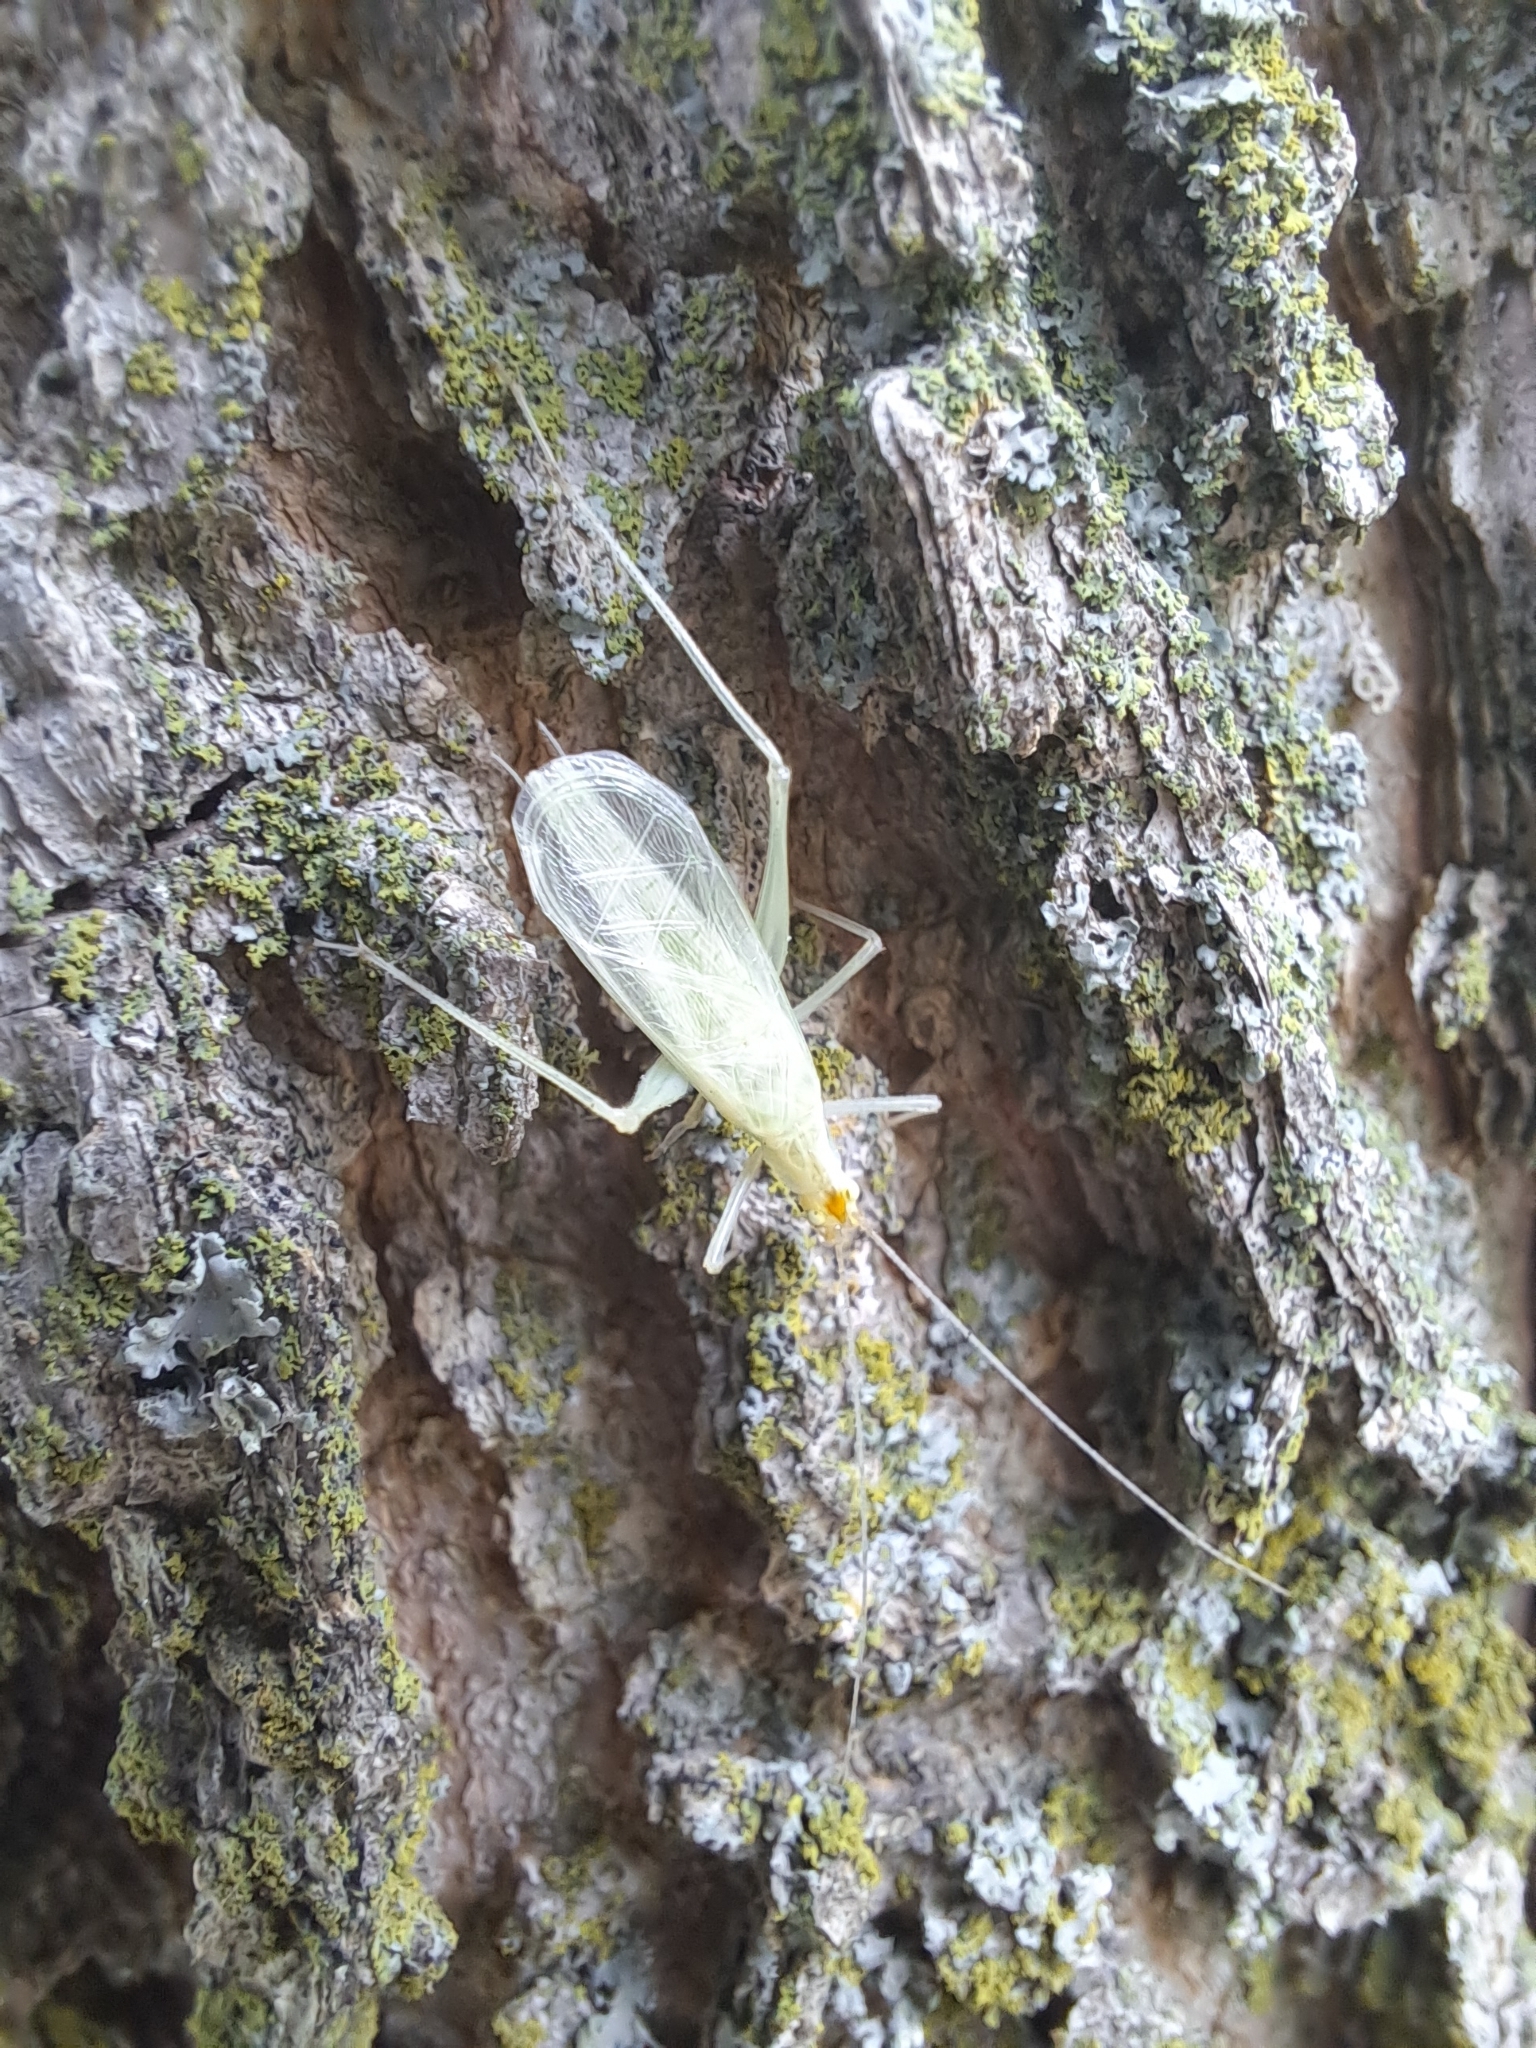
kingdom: Animalia
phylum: Arthropoda
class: Insecta
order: Orthoptera
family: Gryllidae
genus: Oecanthus
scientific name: Oecanthus fultoni
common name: Snowy tree cricket
